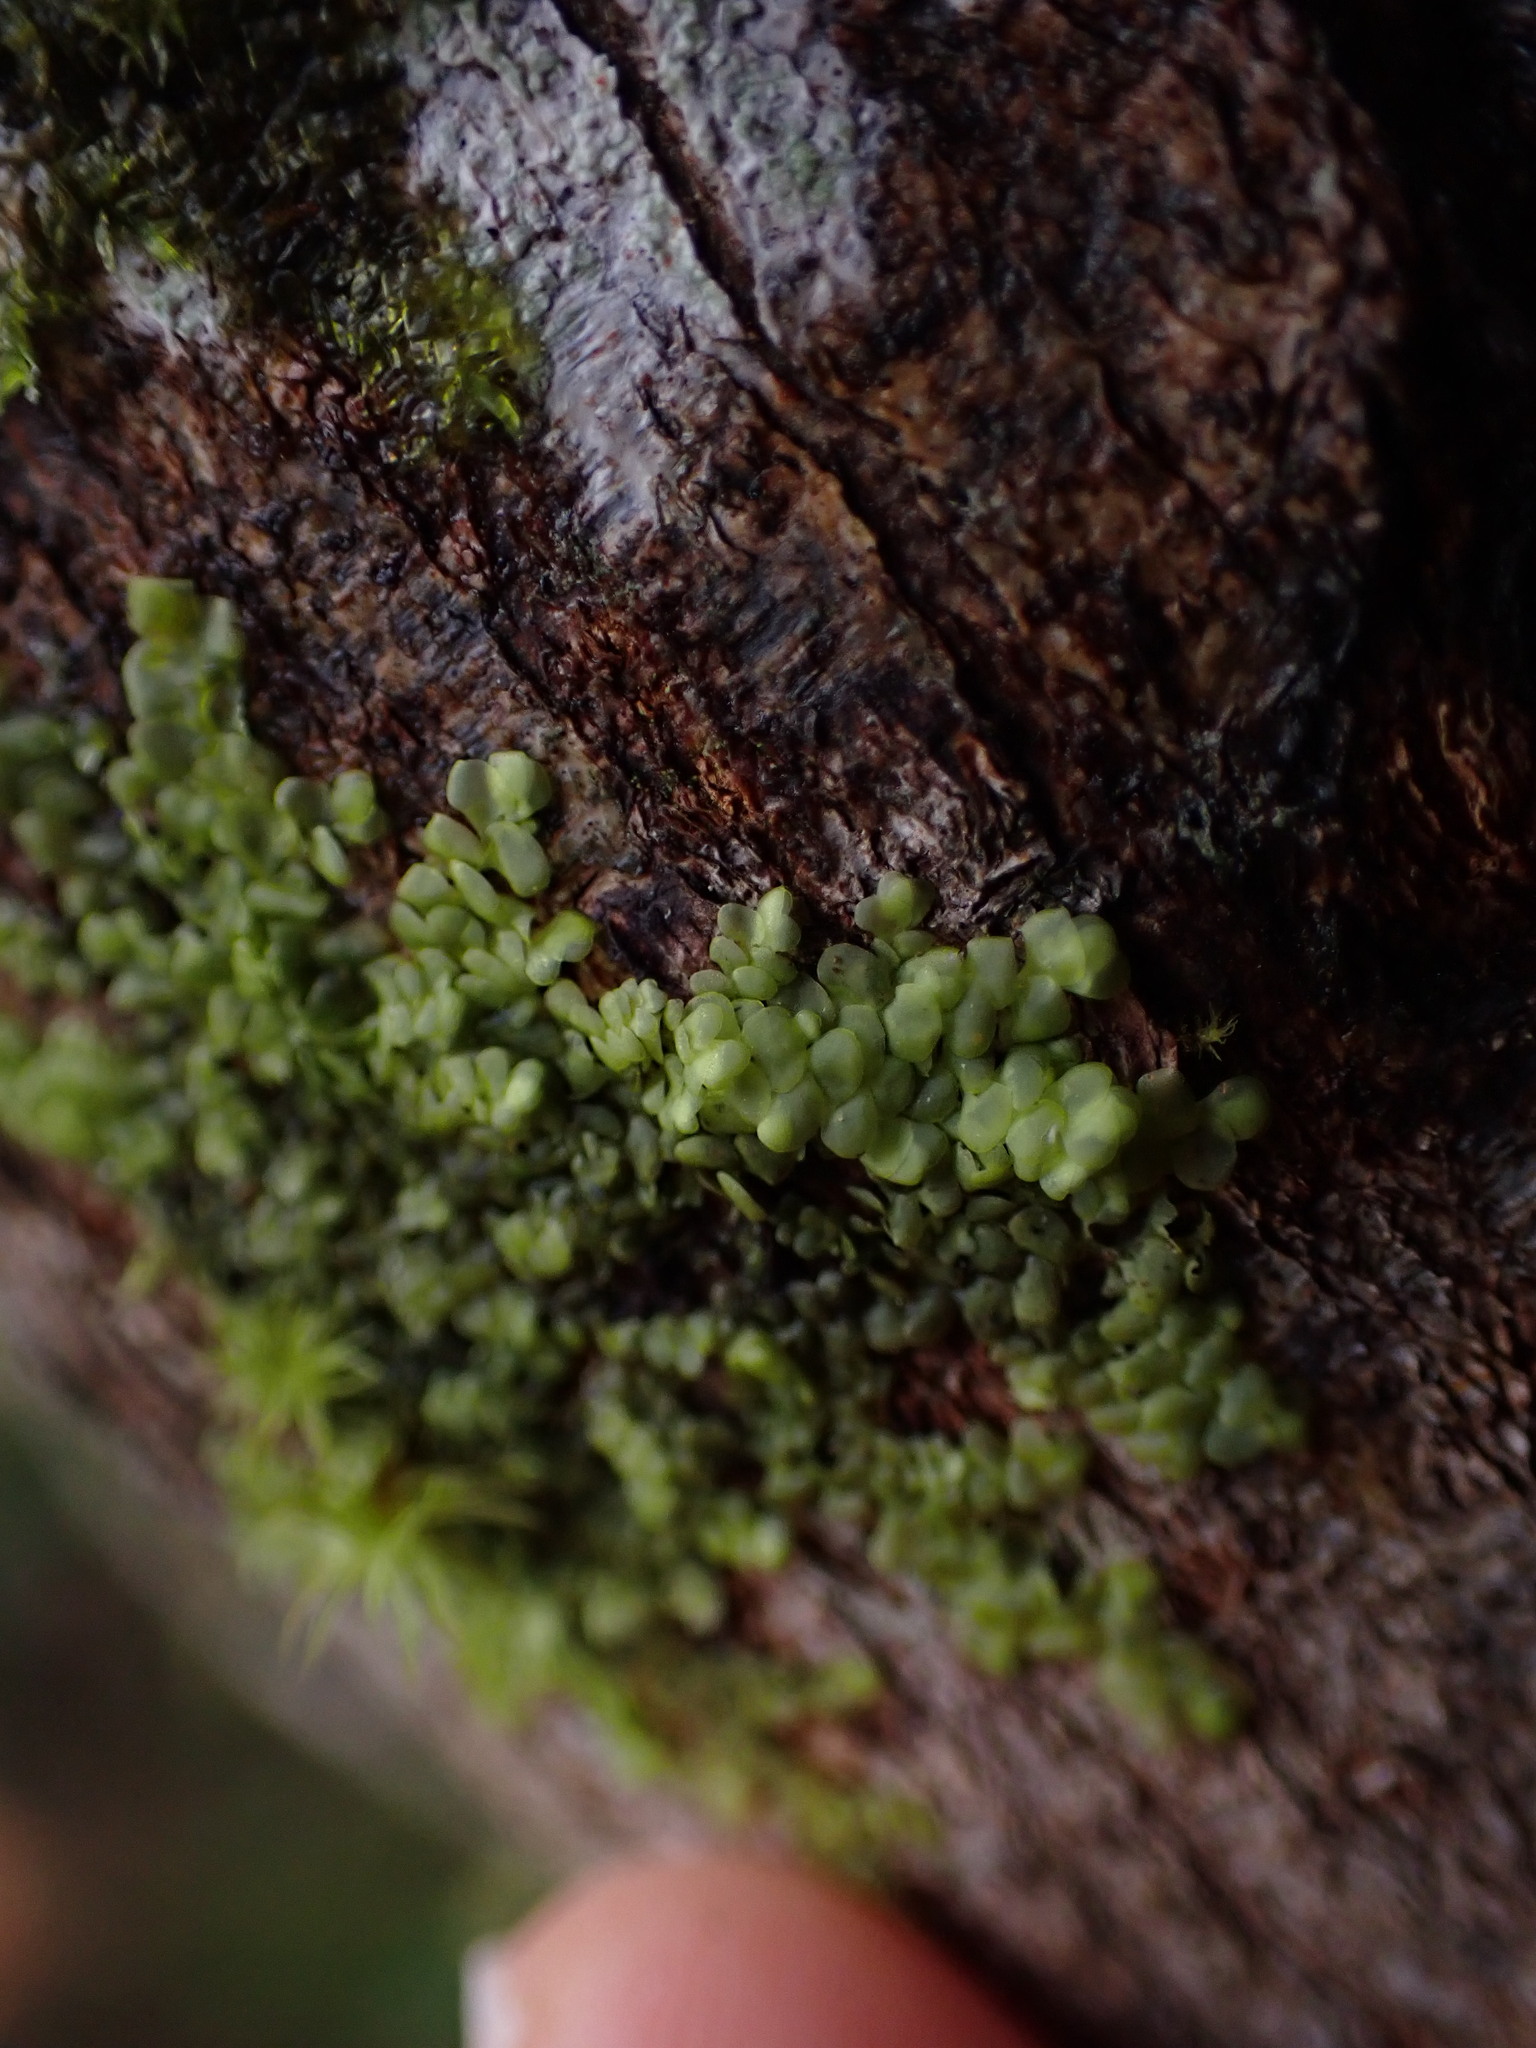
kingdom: Plantae
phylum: Marchantiophyta
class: Jungermanniopsida
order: Porellales
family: Radulaceae
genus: Radula
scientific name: Radula complanata
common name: Flat-leaved scalewort
